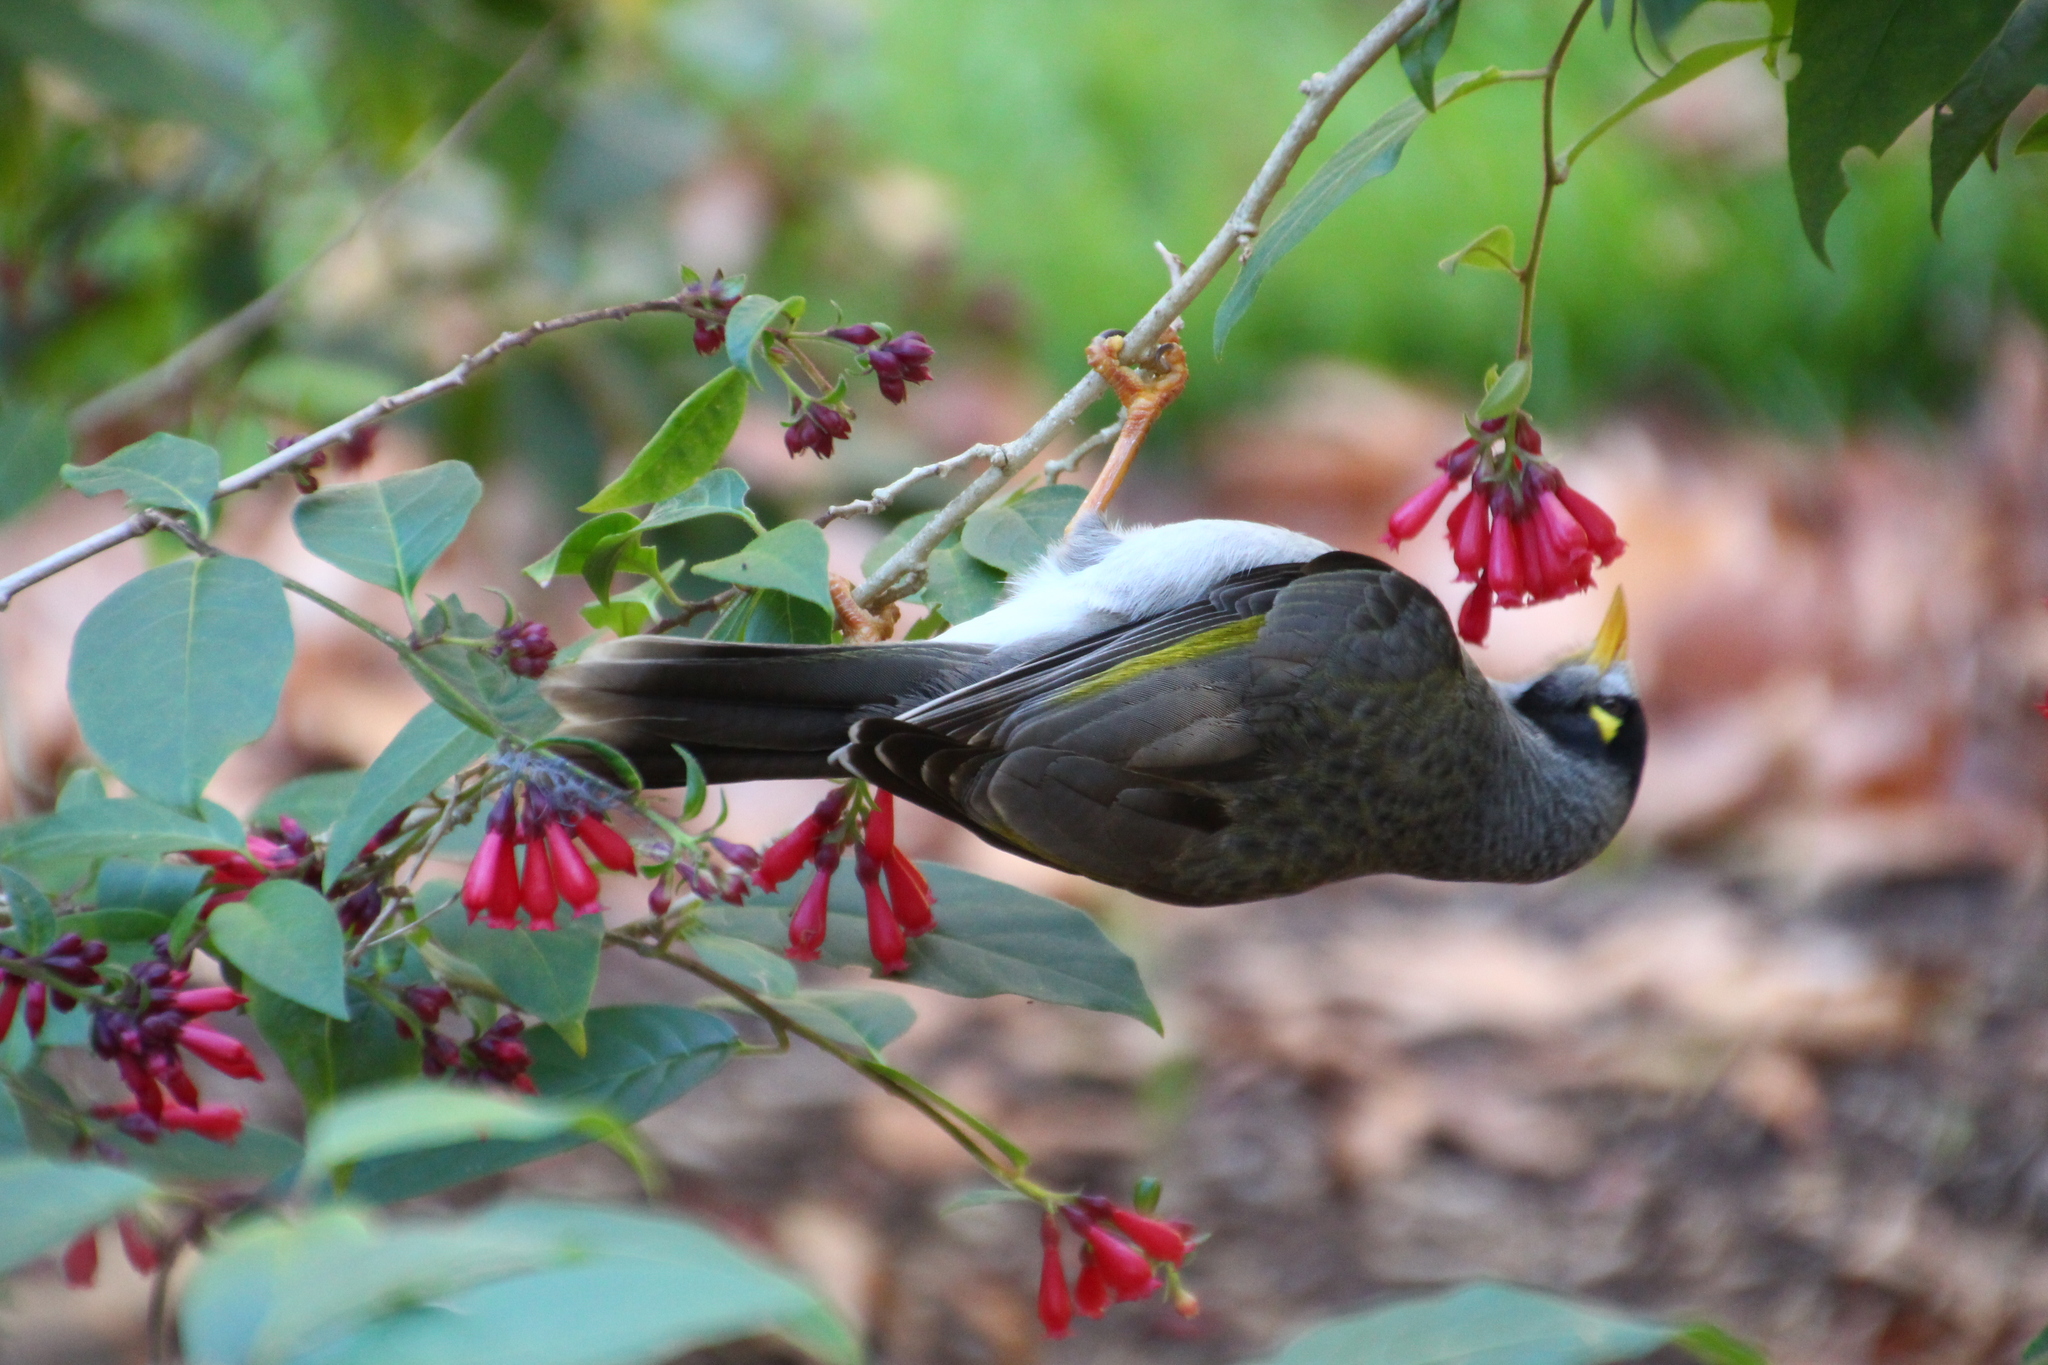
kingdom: Animalia
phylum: Chordata
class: Aves
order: Passeriformes
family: Meliphagidae
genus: Manorina
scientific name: Manorina melanocephala
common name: Noisy miner
